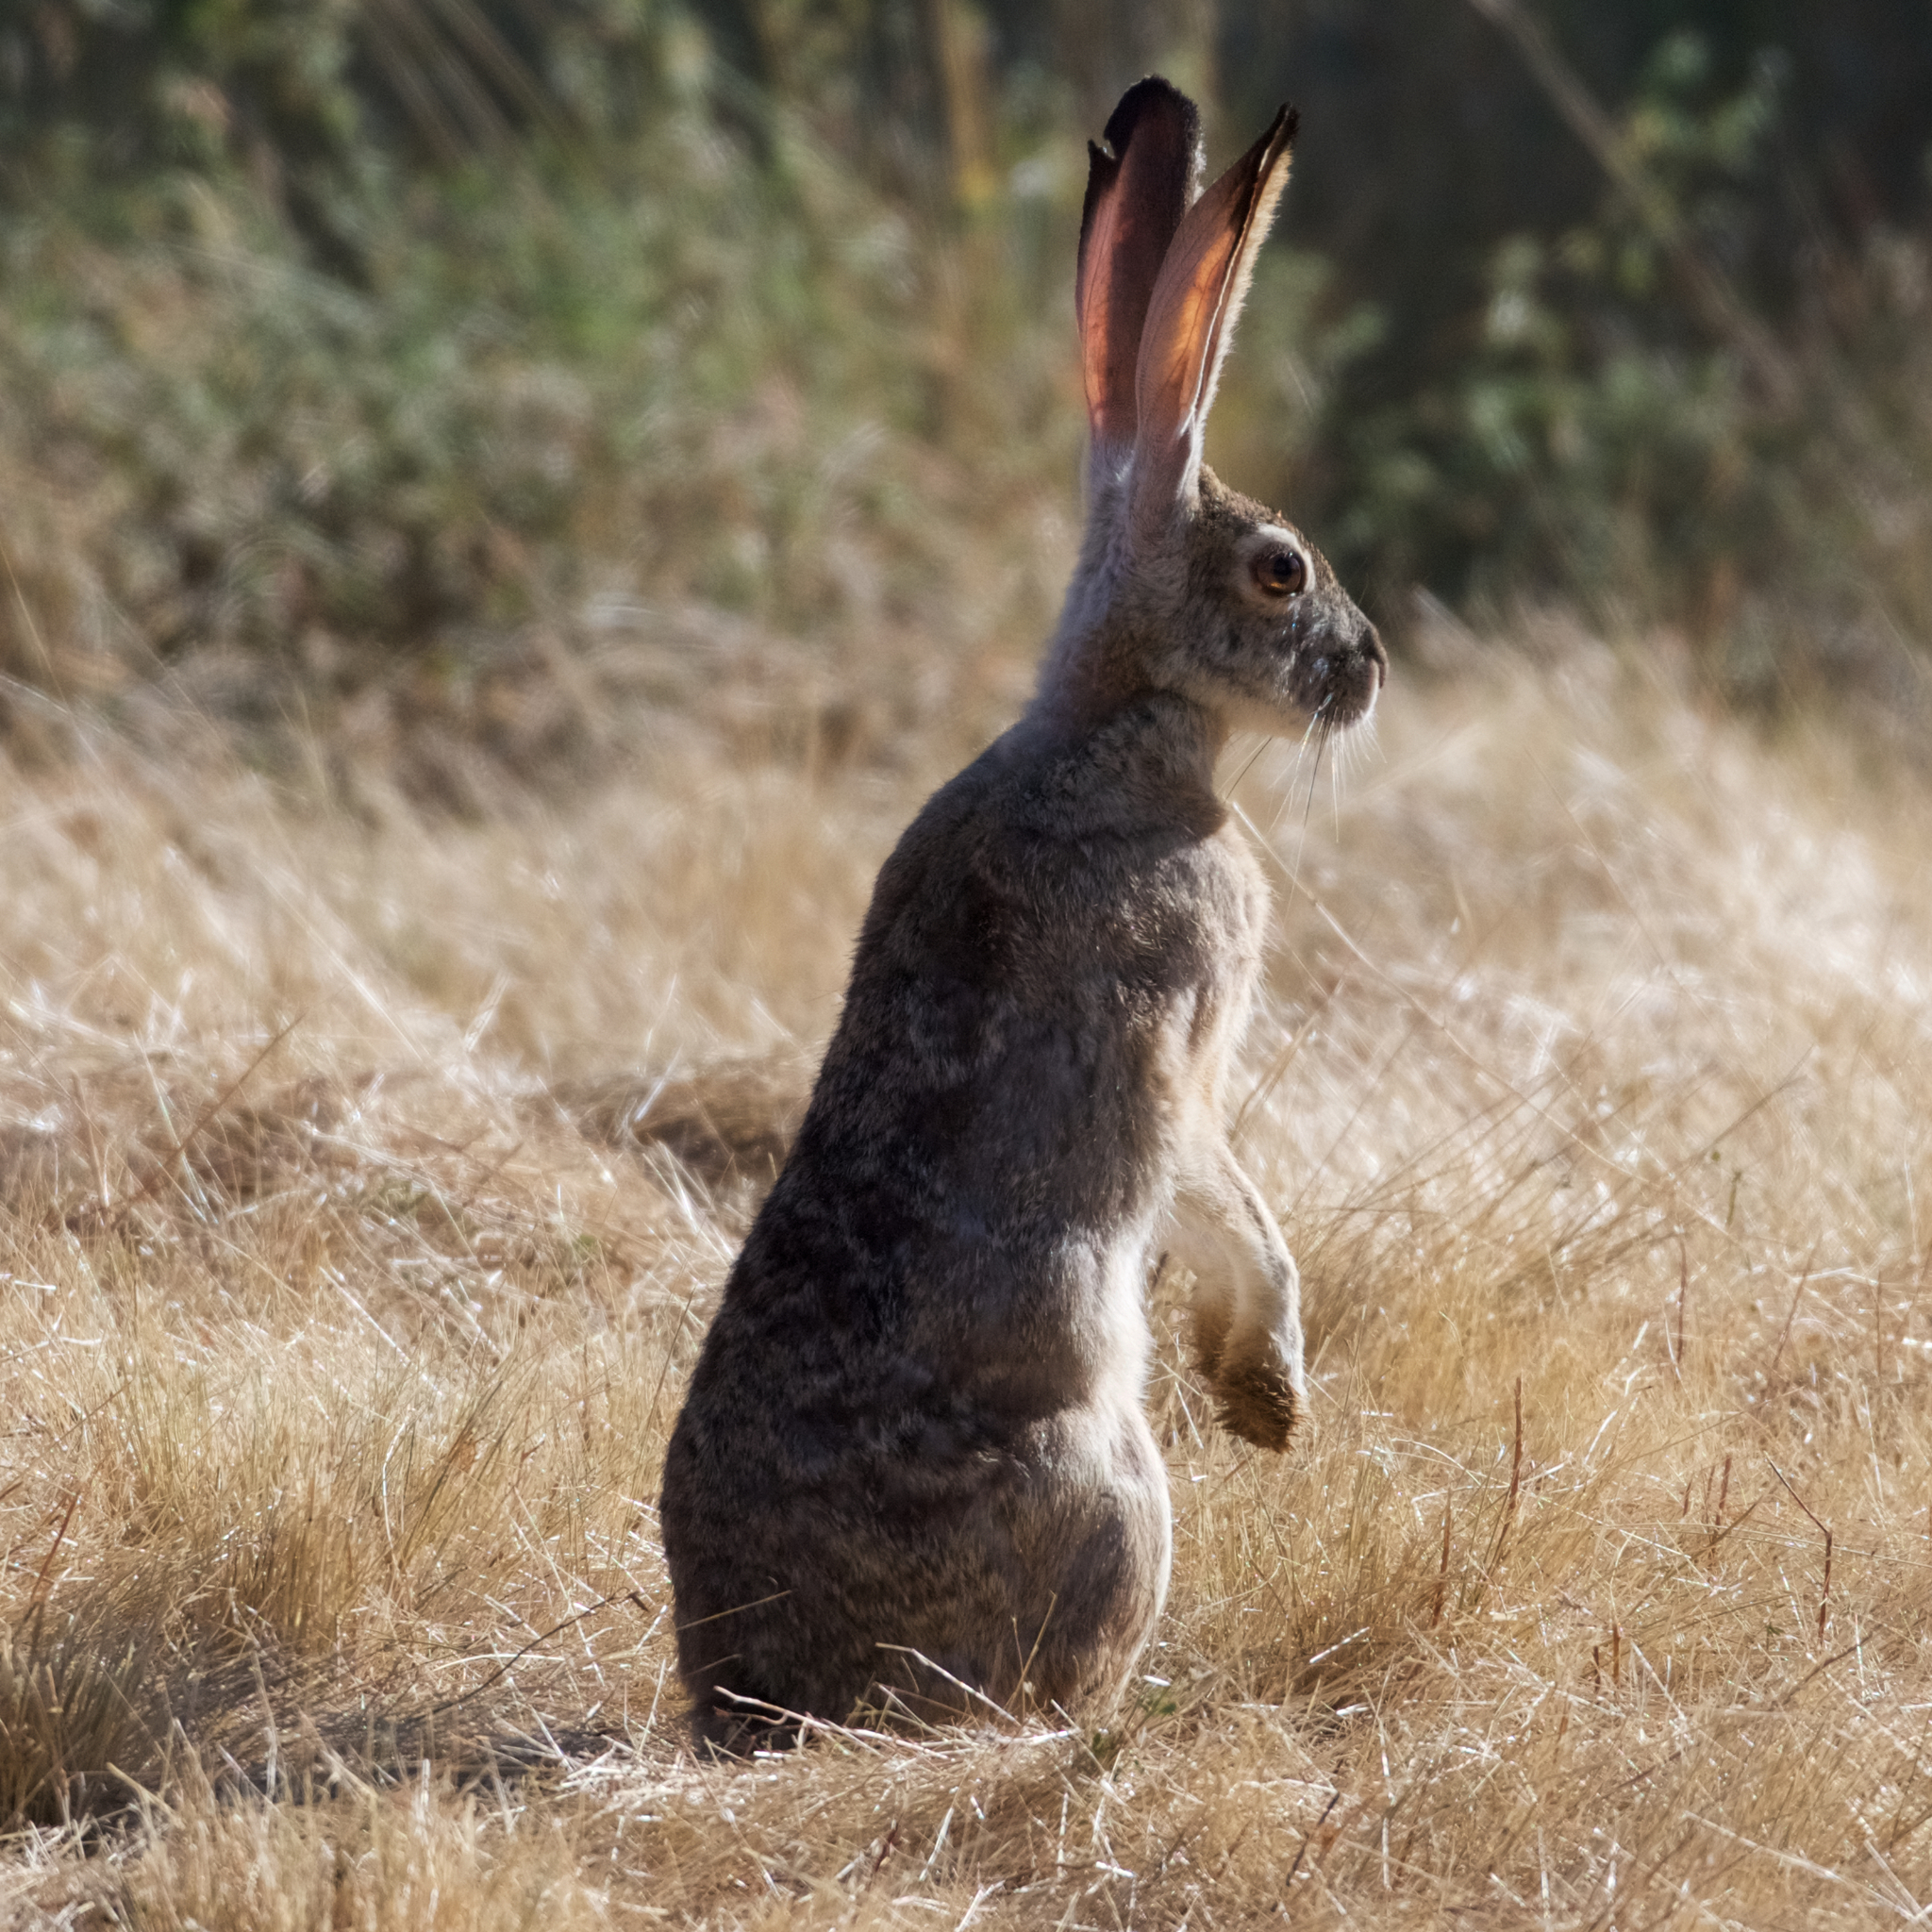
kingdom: Animalia
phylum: Chordata
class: Mammalia
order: Lagomorpha
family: Leporidae
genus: Lepus
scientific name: Lepus californicus
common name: Black-tailed jackrabbit
